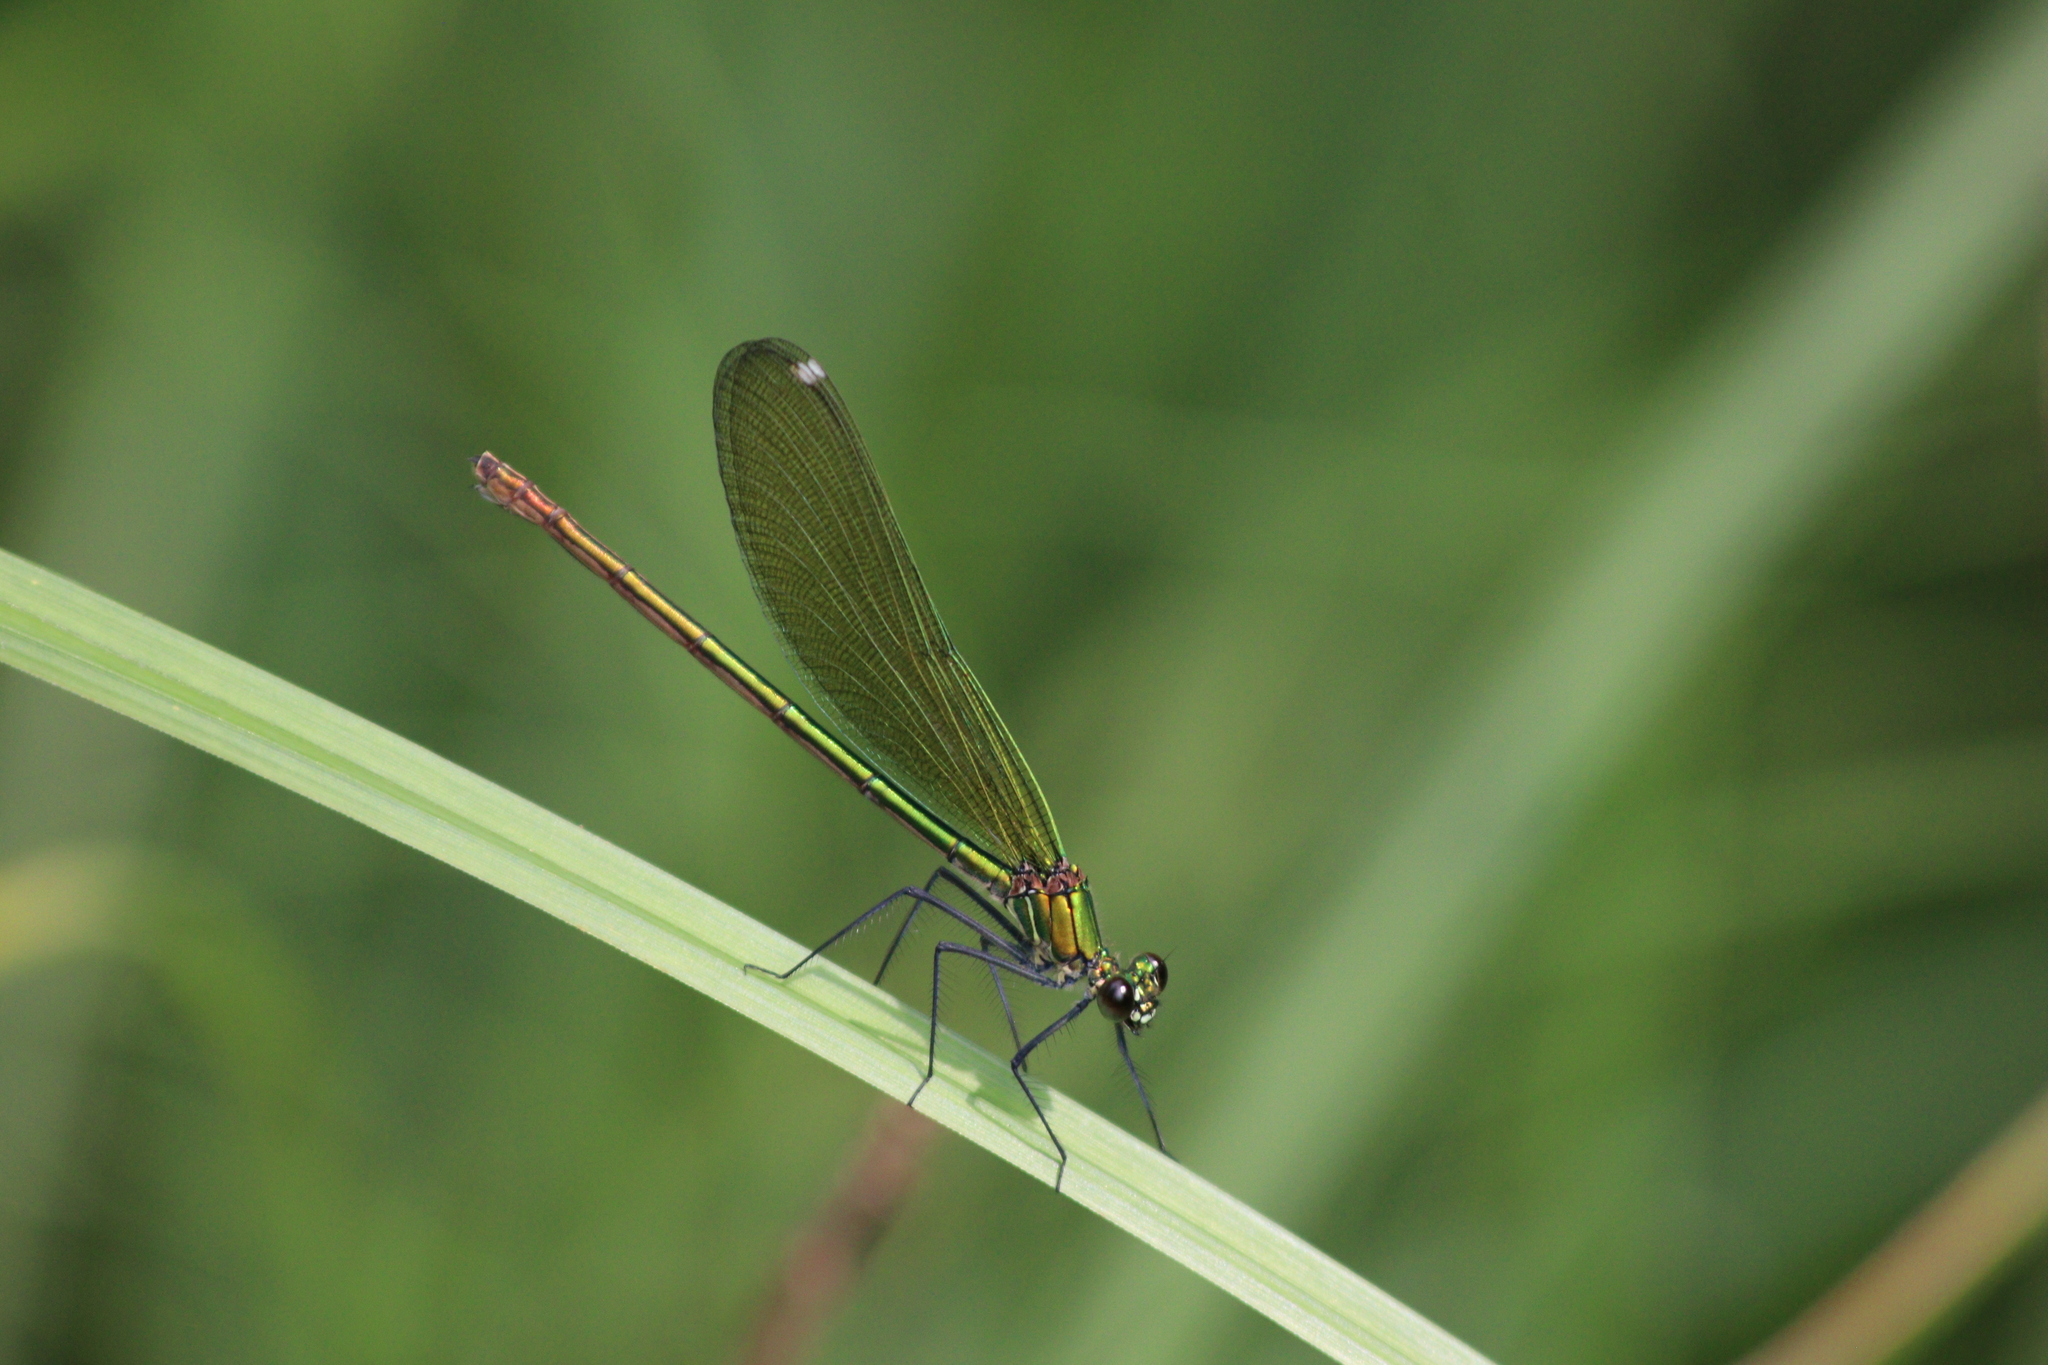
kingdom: Animalia
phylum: Arthropoda
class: Insecta
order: Odonata
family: Calopterygidae
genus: Calopteryx
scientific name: Calopteryx splendens
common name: Banded demoiselle
